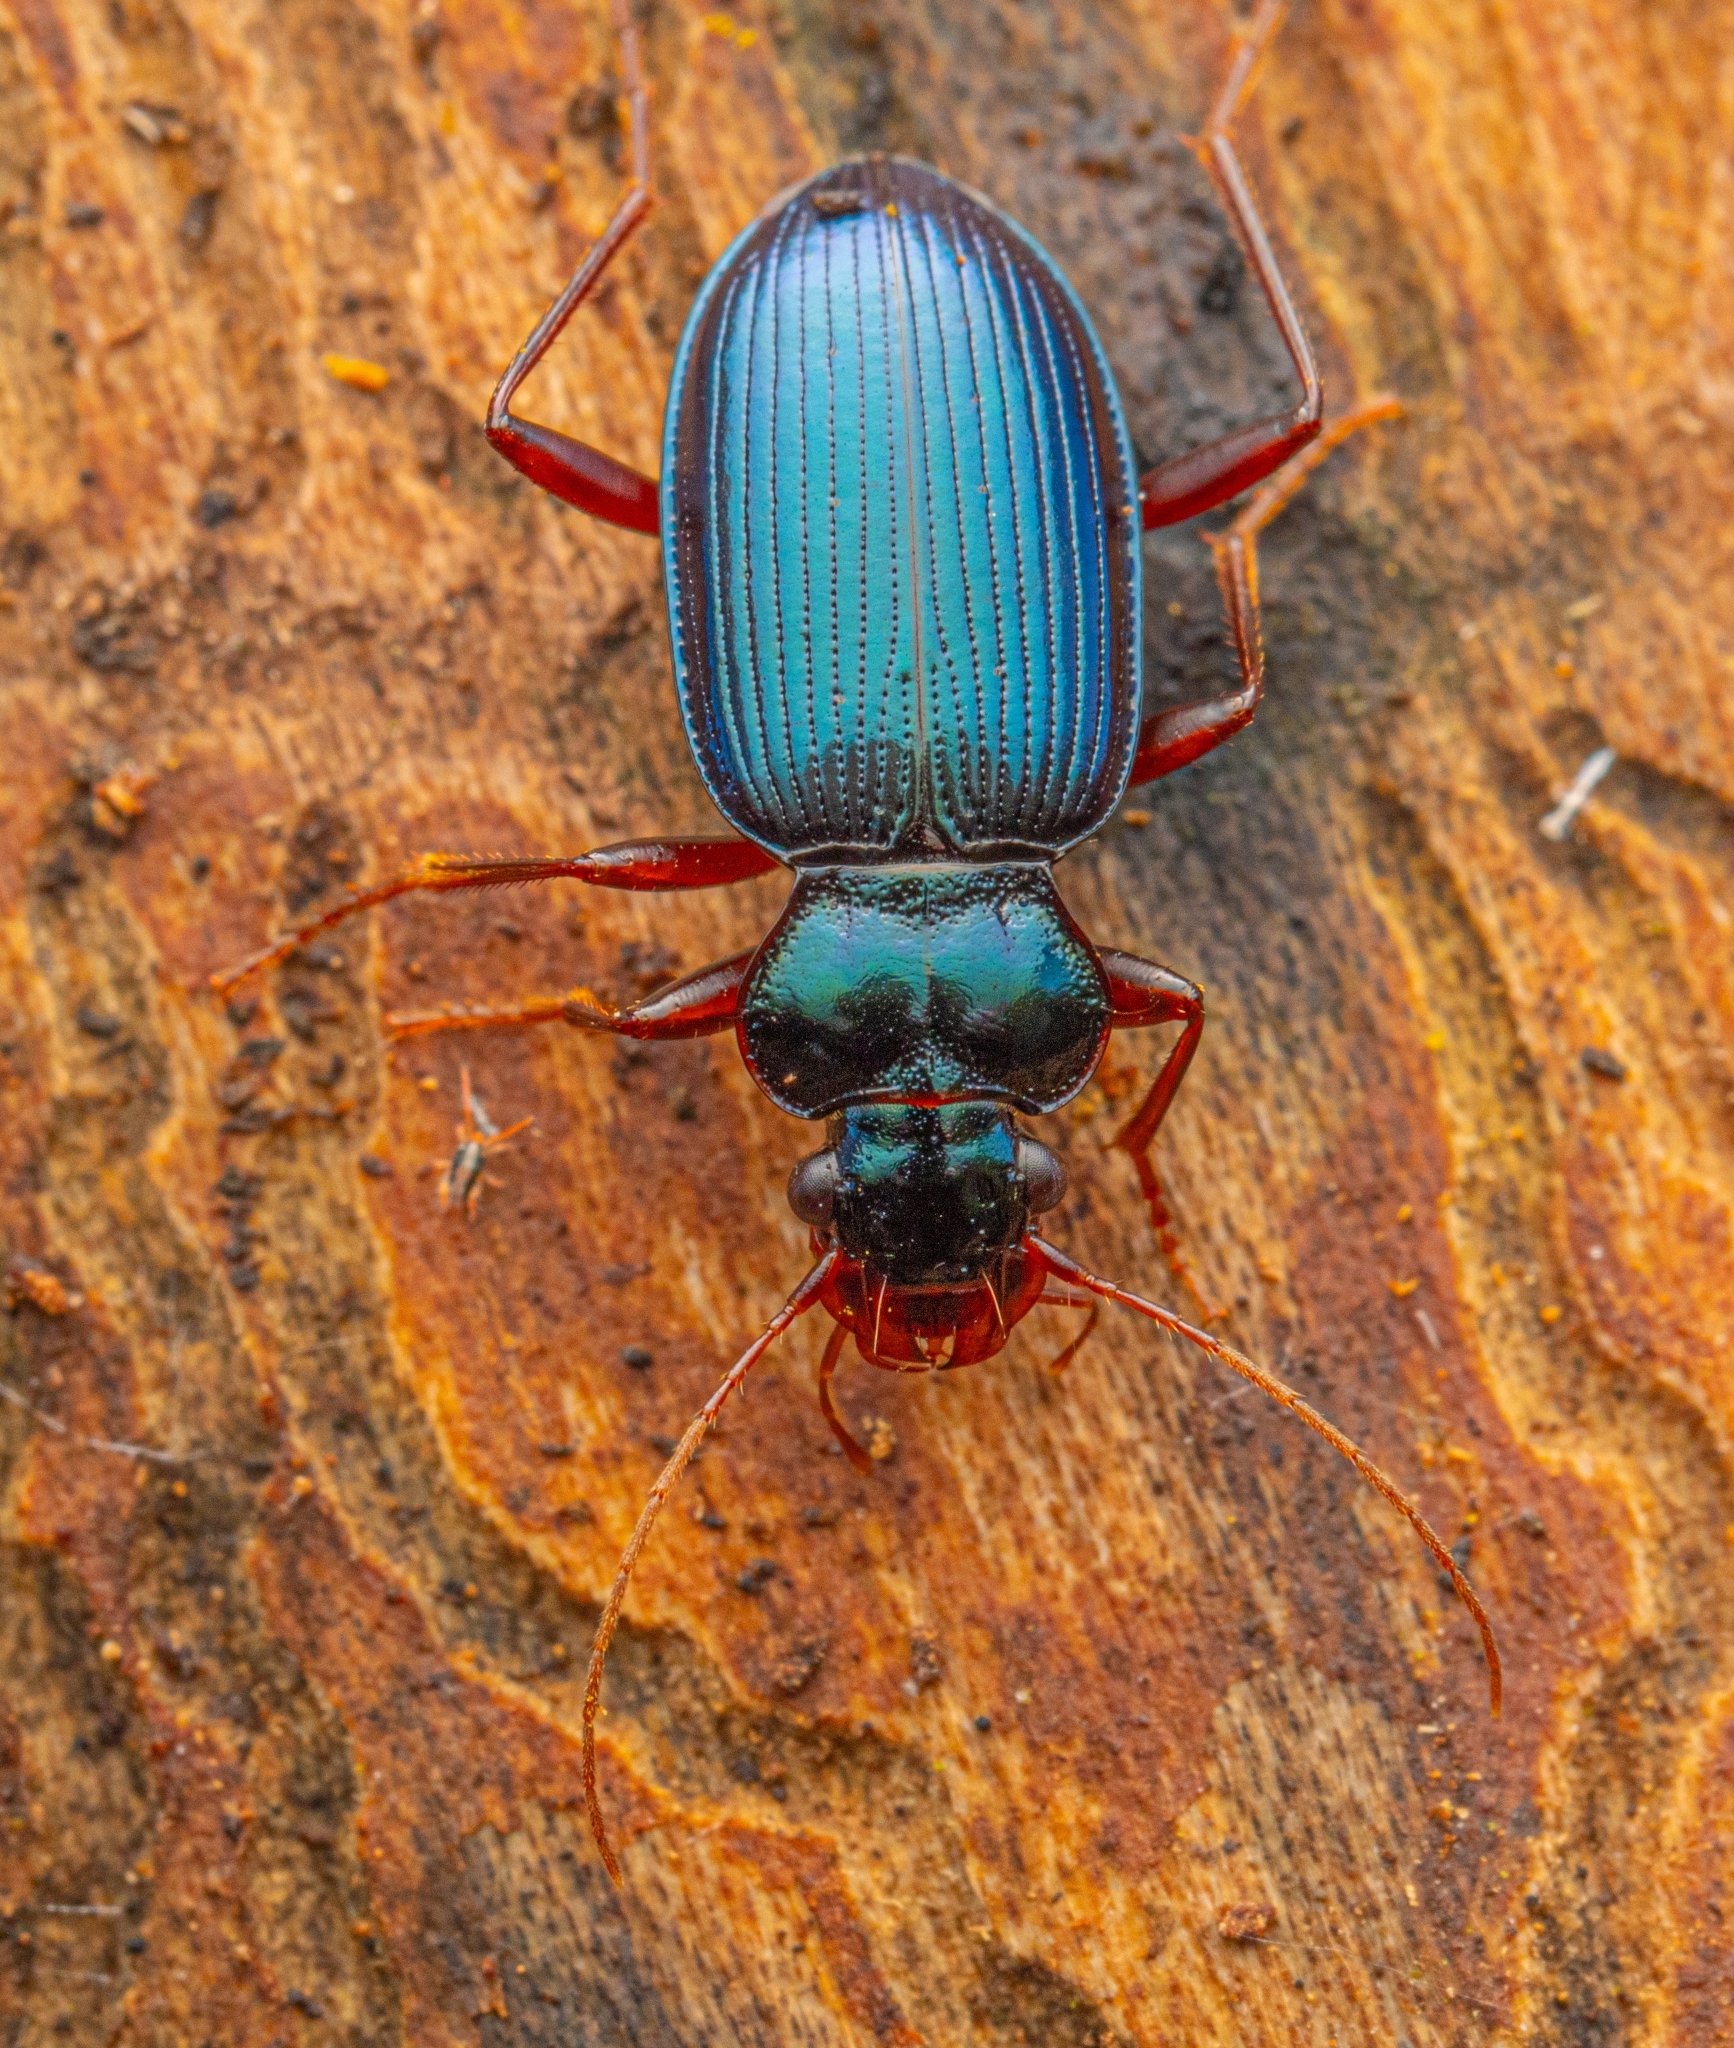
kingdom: Animalia
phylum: Arthropoda
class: Insecta
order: Coleoptera
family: Carabidae
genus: Leistus
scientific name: Leistus spinibarbis
